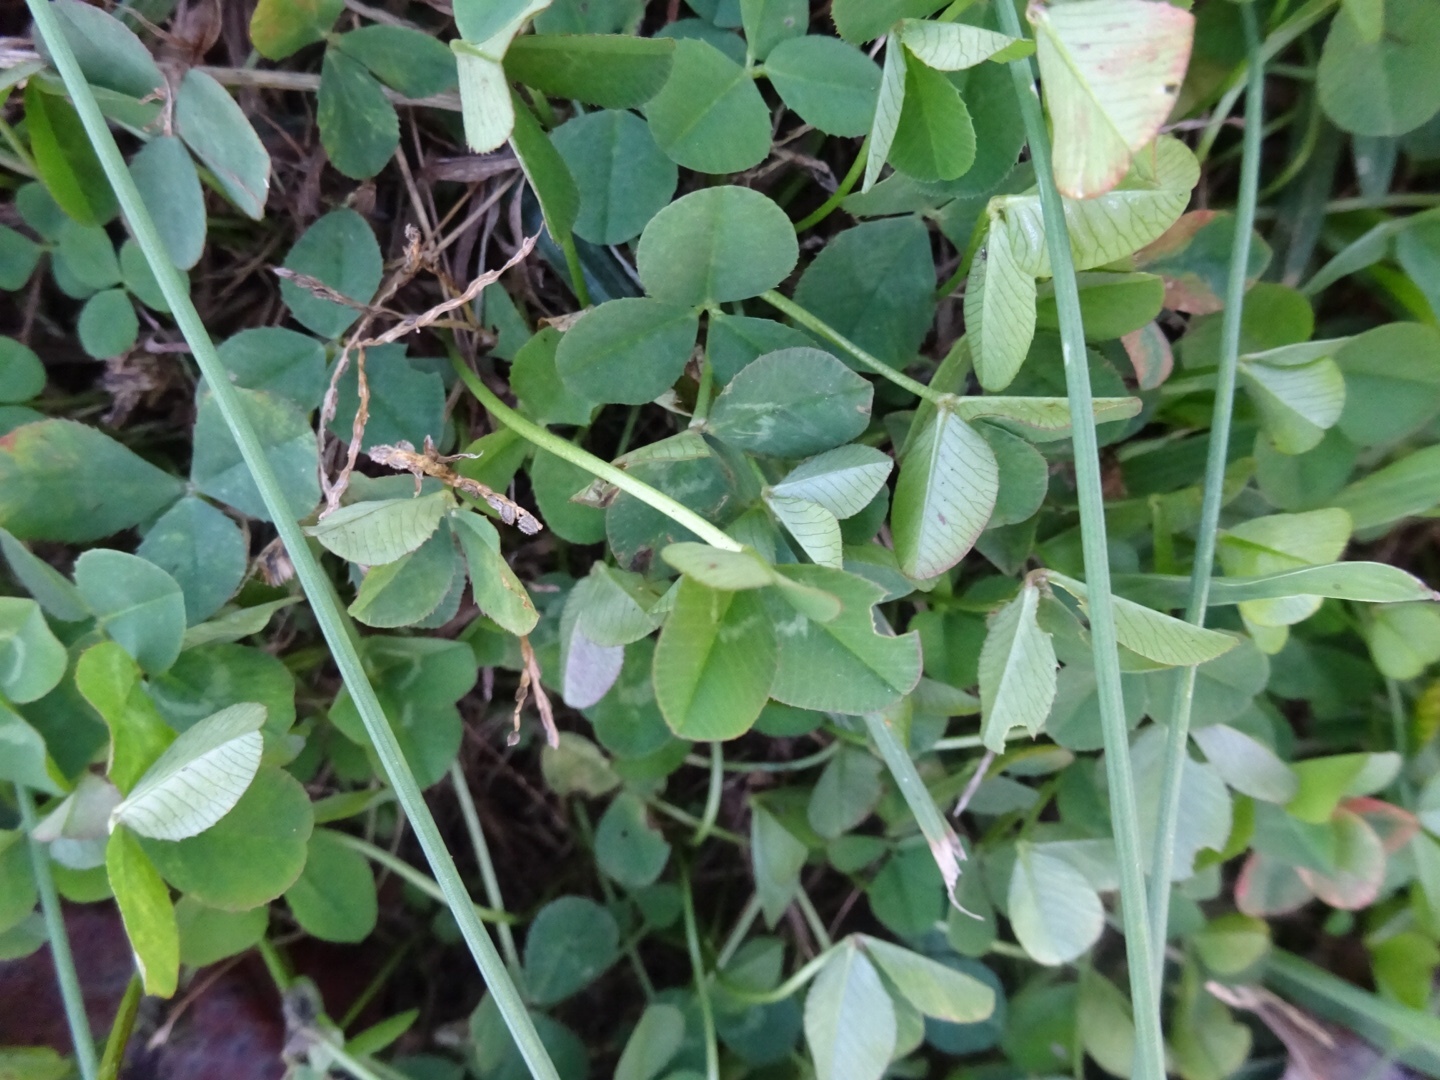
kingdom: Plantae
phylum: Tracheophyta
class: Magnoliopsida
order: Fabales
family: Fabaceae
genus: Trifolium
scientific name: Trifolium repens
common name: White clover
